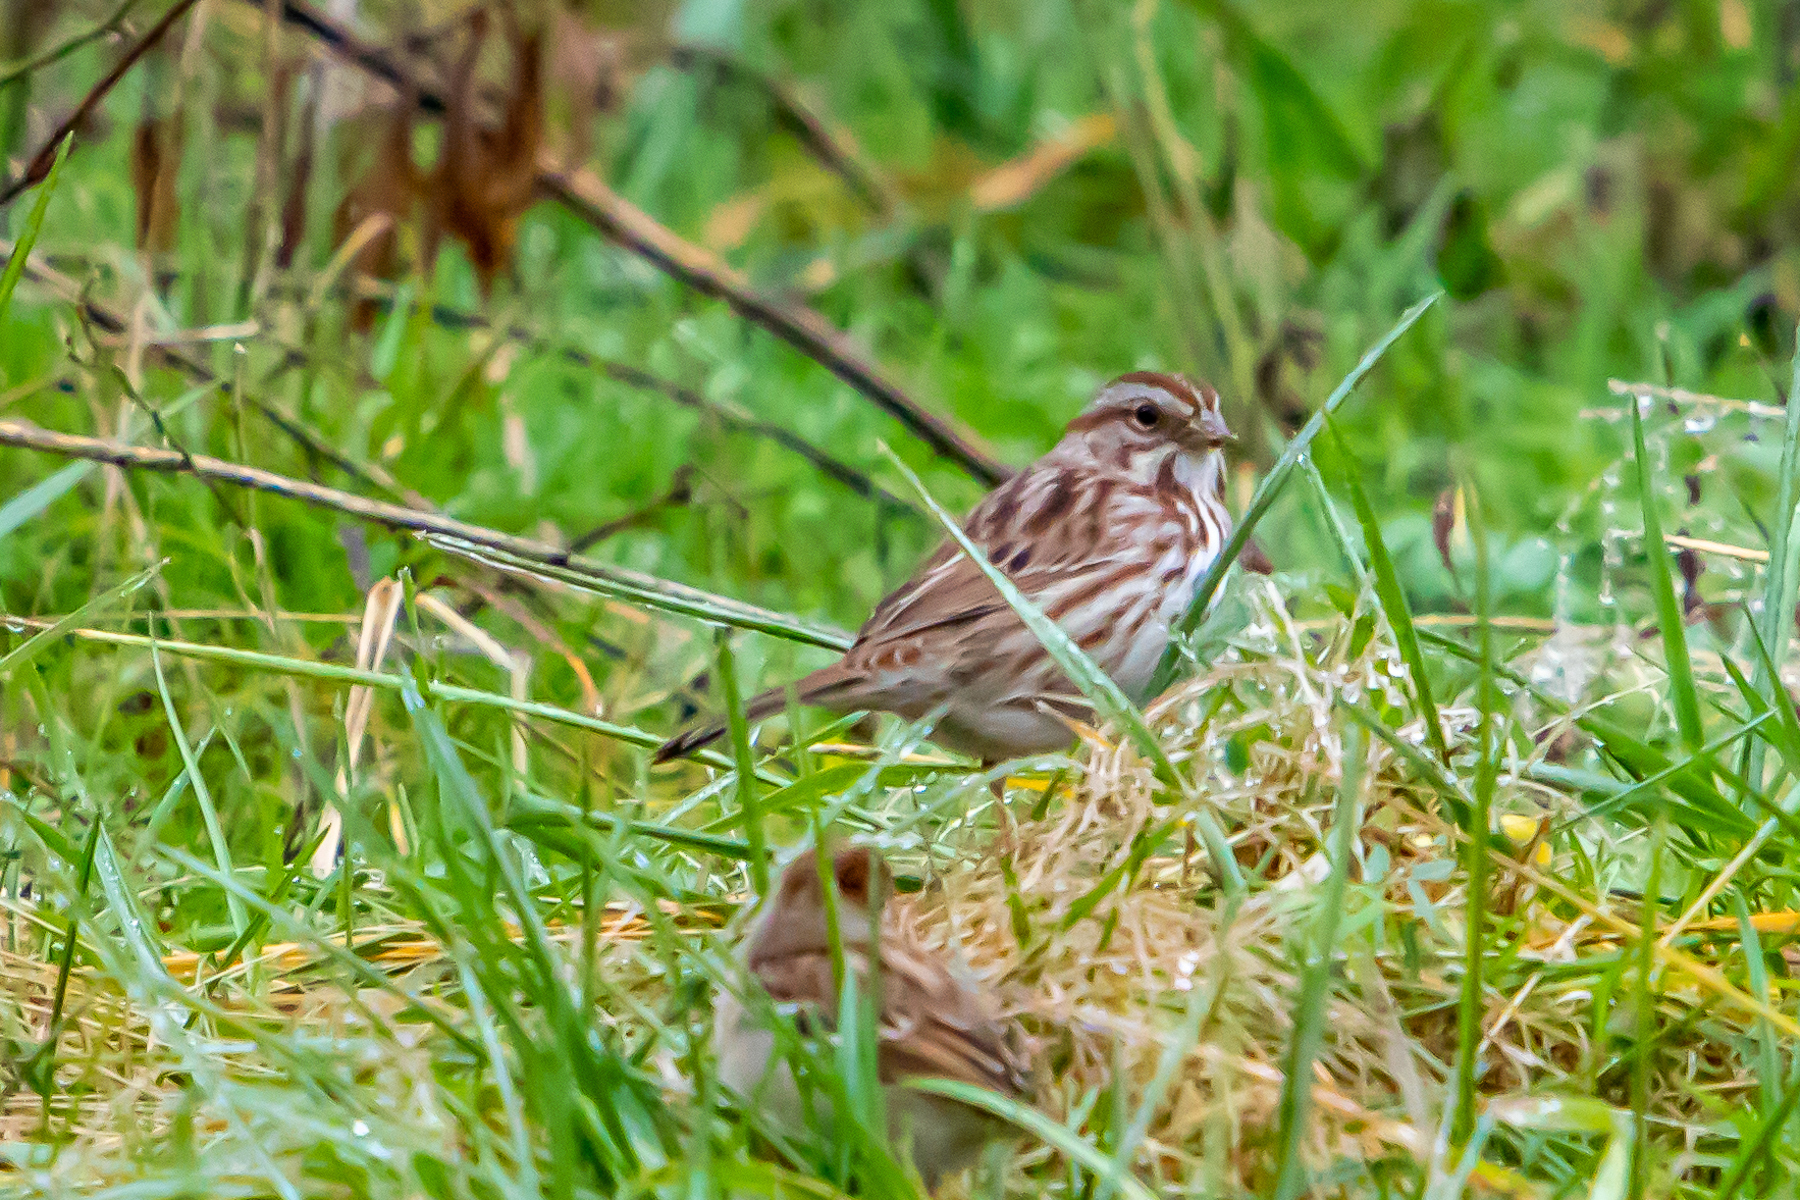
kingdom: Animalia
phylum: Chordata
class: Aves
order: Passeriformes
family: Passerellidae
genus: Melospiza
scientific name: Melospiza melodia
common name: Song sparrow
